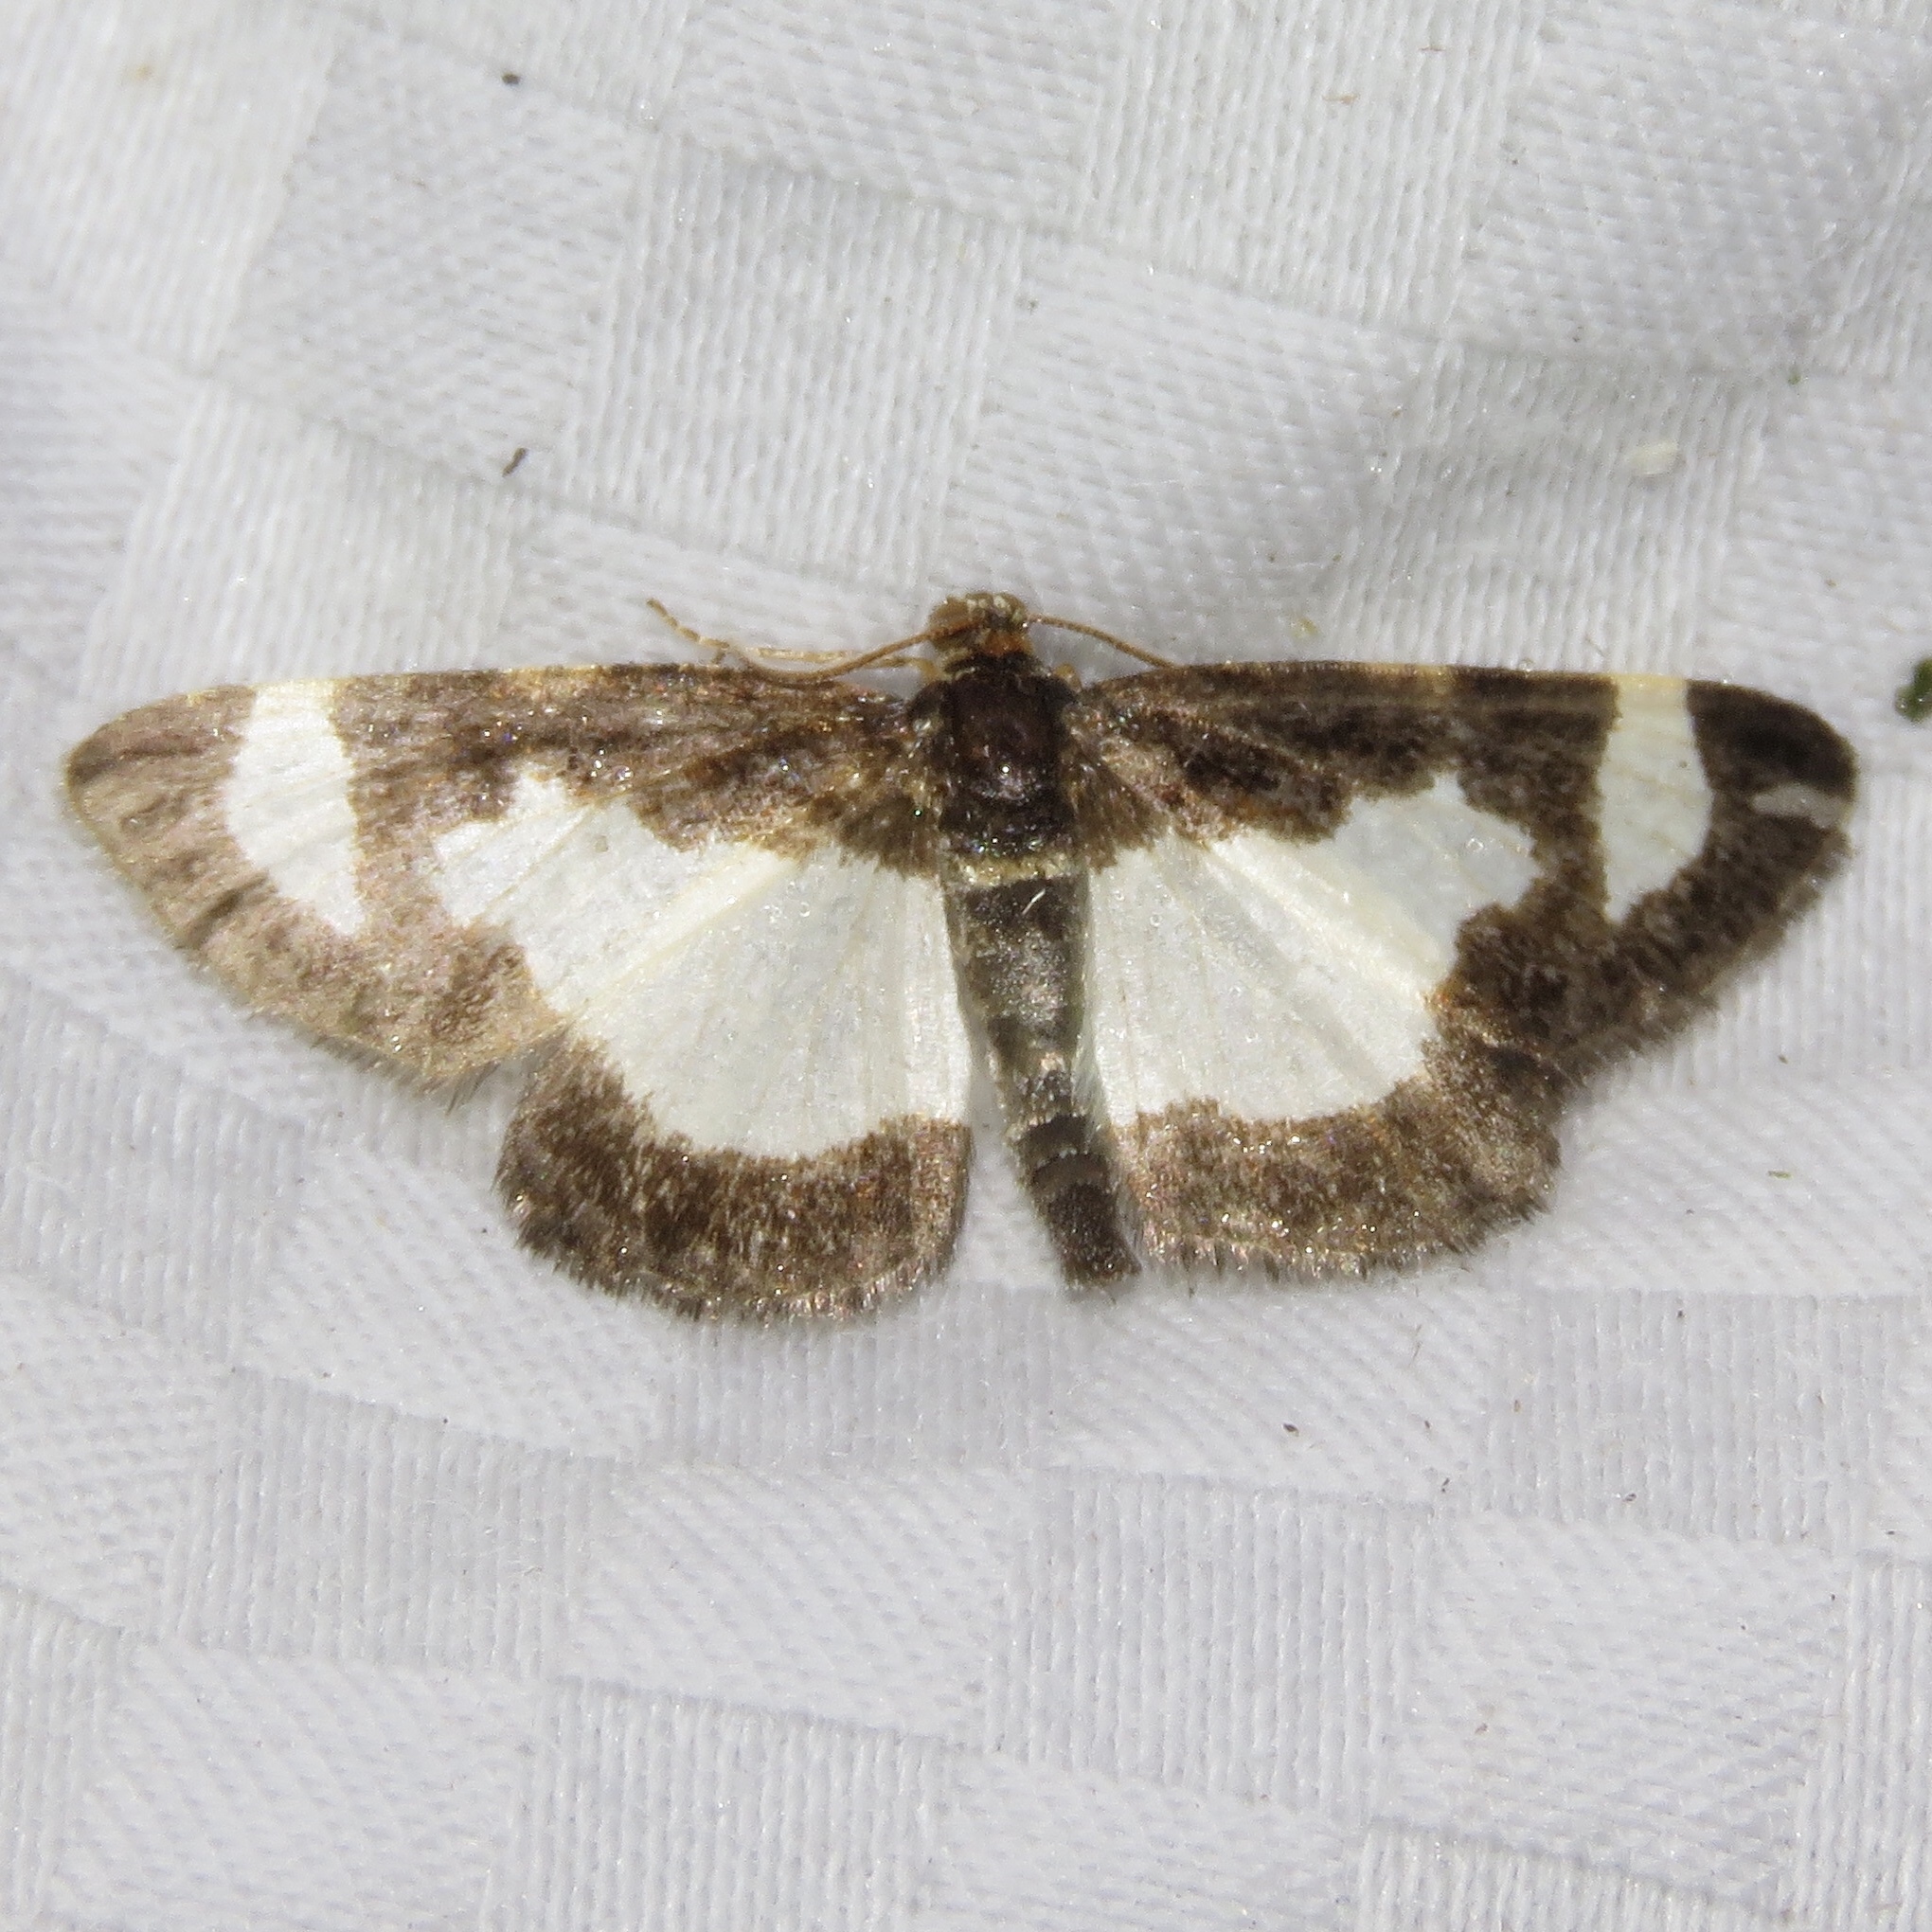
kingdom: Animalia
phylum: Arthropoda
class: Insecta
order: Lepidoptera
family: Geometridae
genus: Heliomata
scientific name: Heliomata cycladata
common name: Common spring moth
